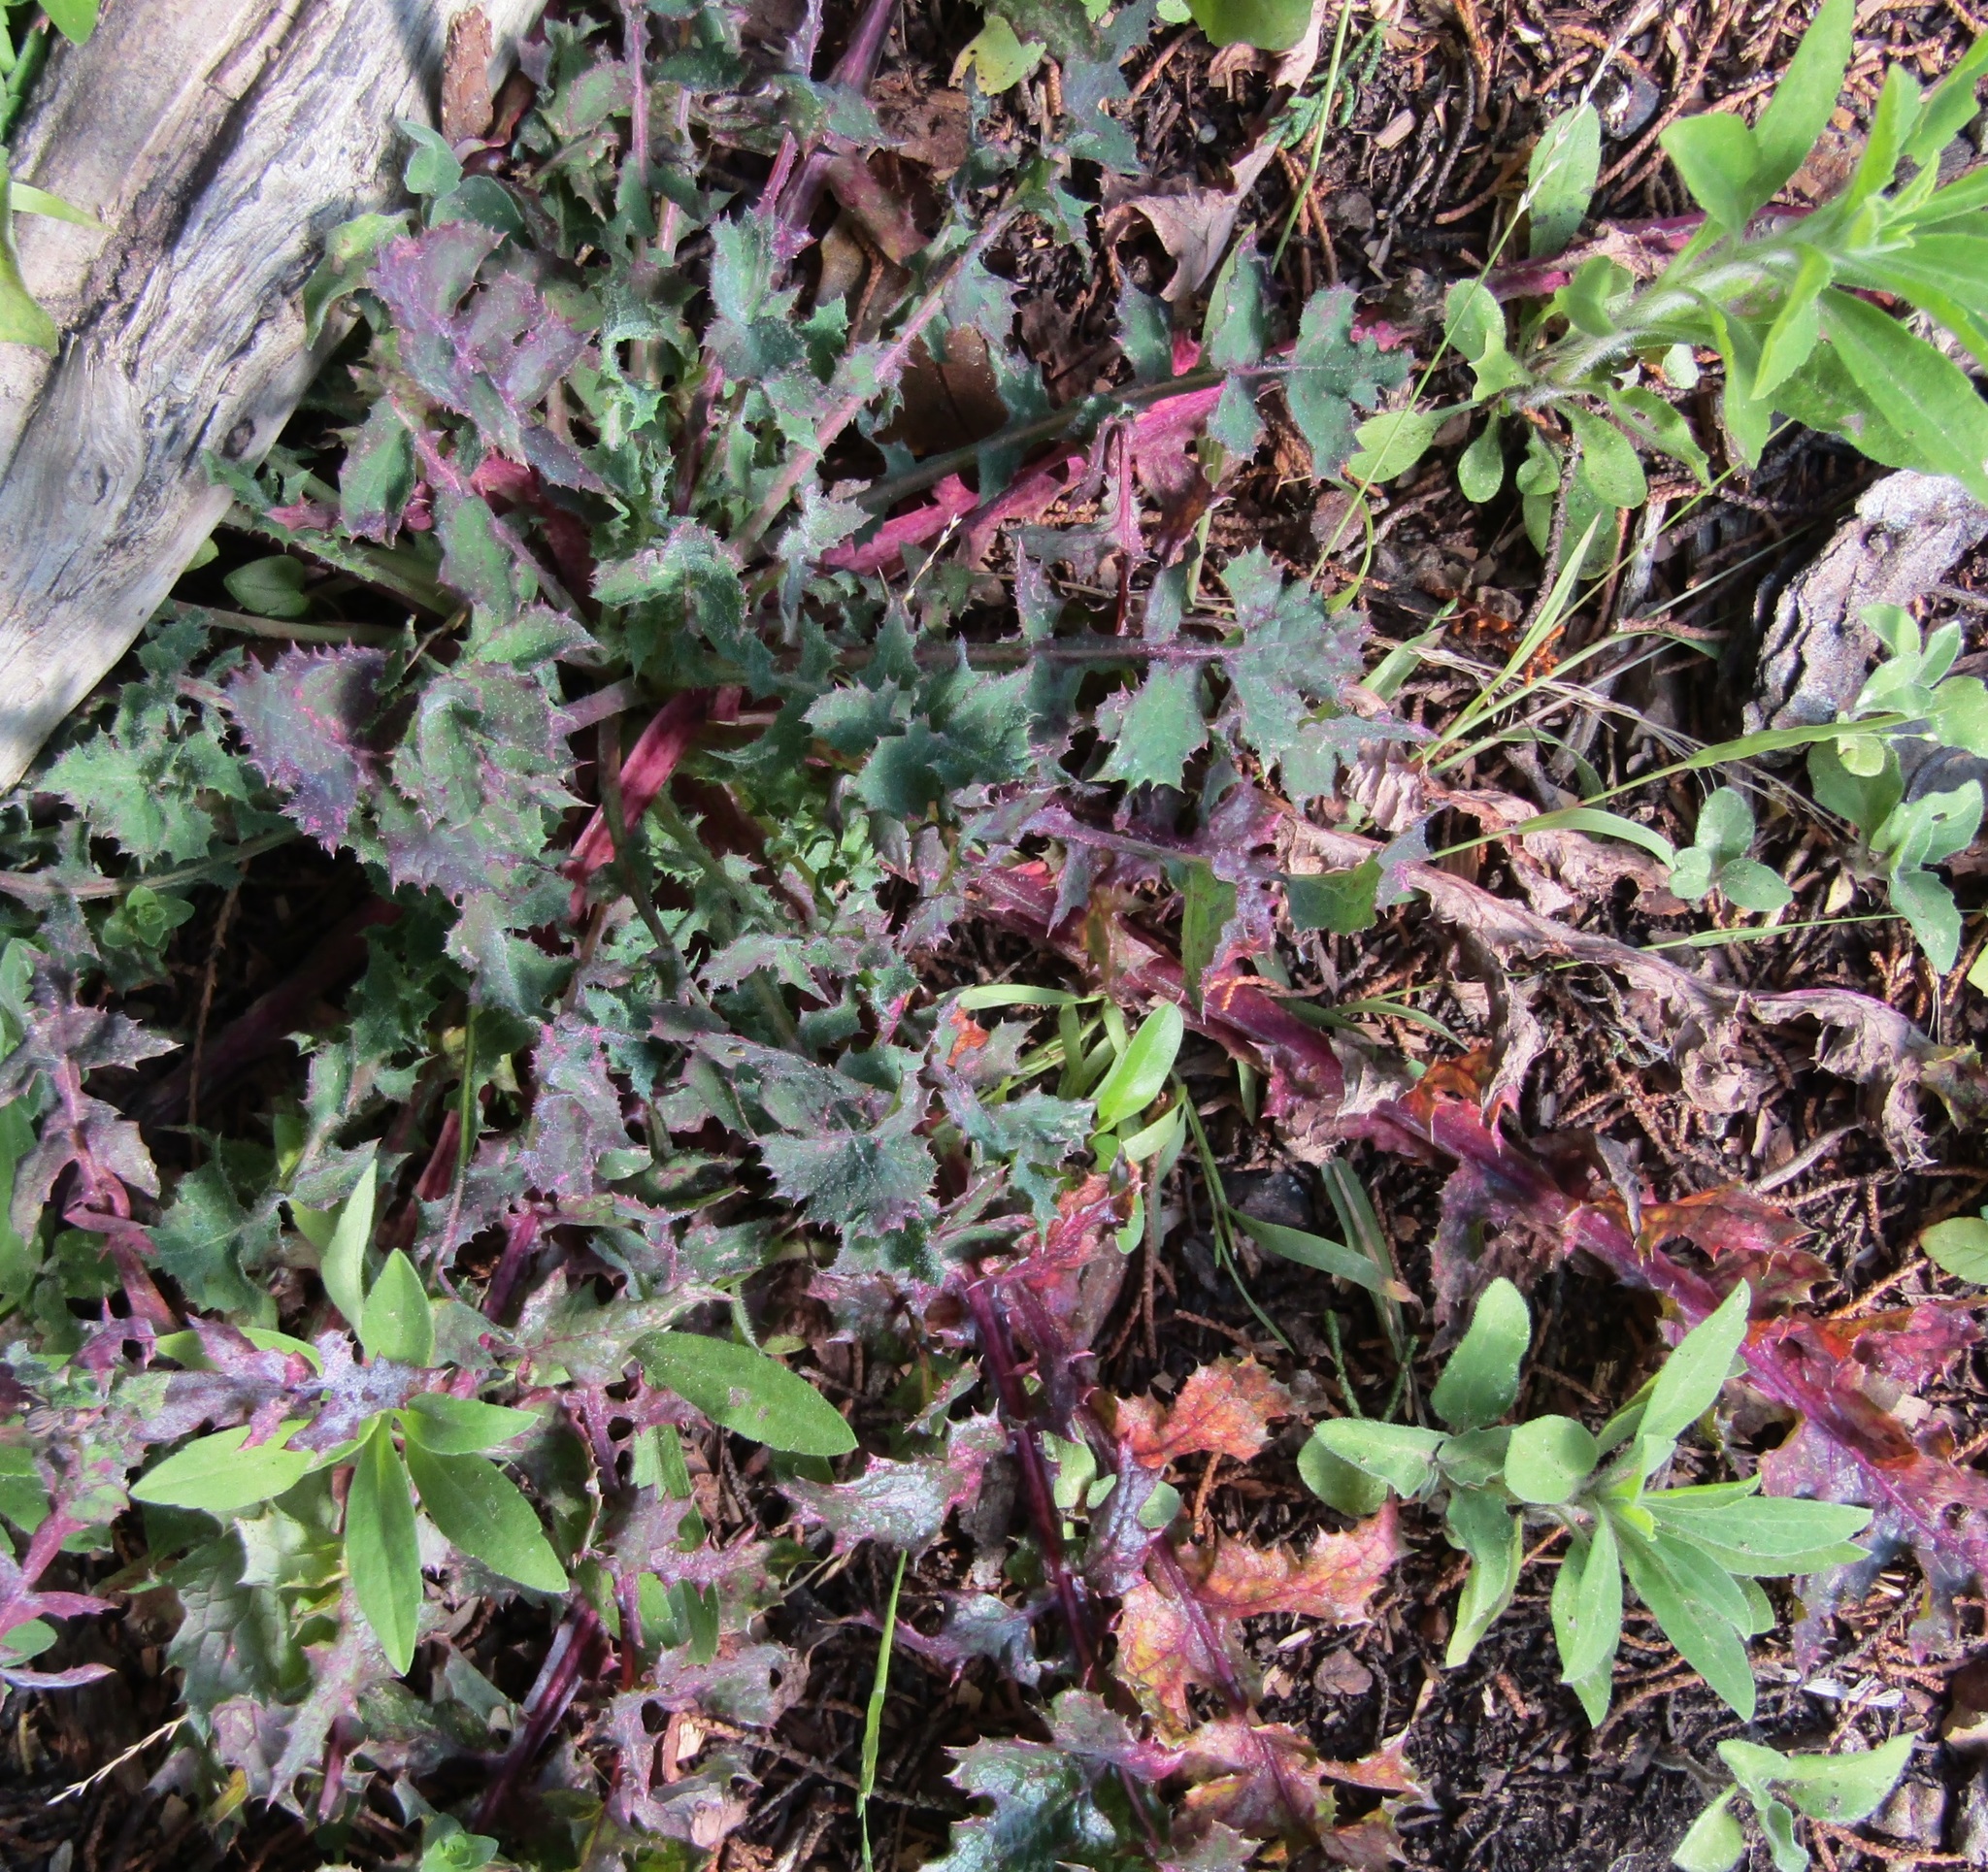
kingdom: Plantae
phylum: Tracheophyta
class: Magnoliopsida
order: Asterales
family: Asteraceae
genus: Sonchus
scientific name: Sonchus oleraceus
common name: Common sowthistle
